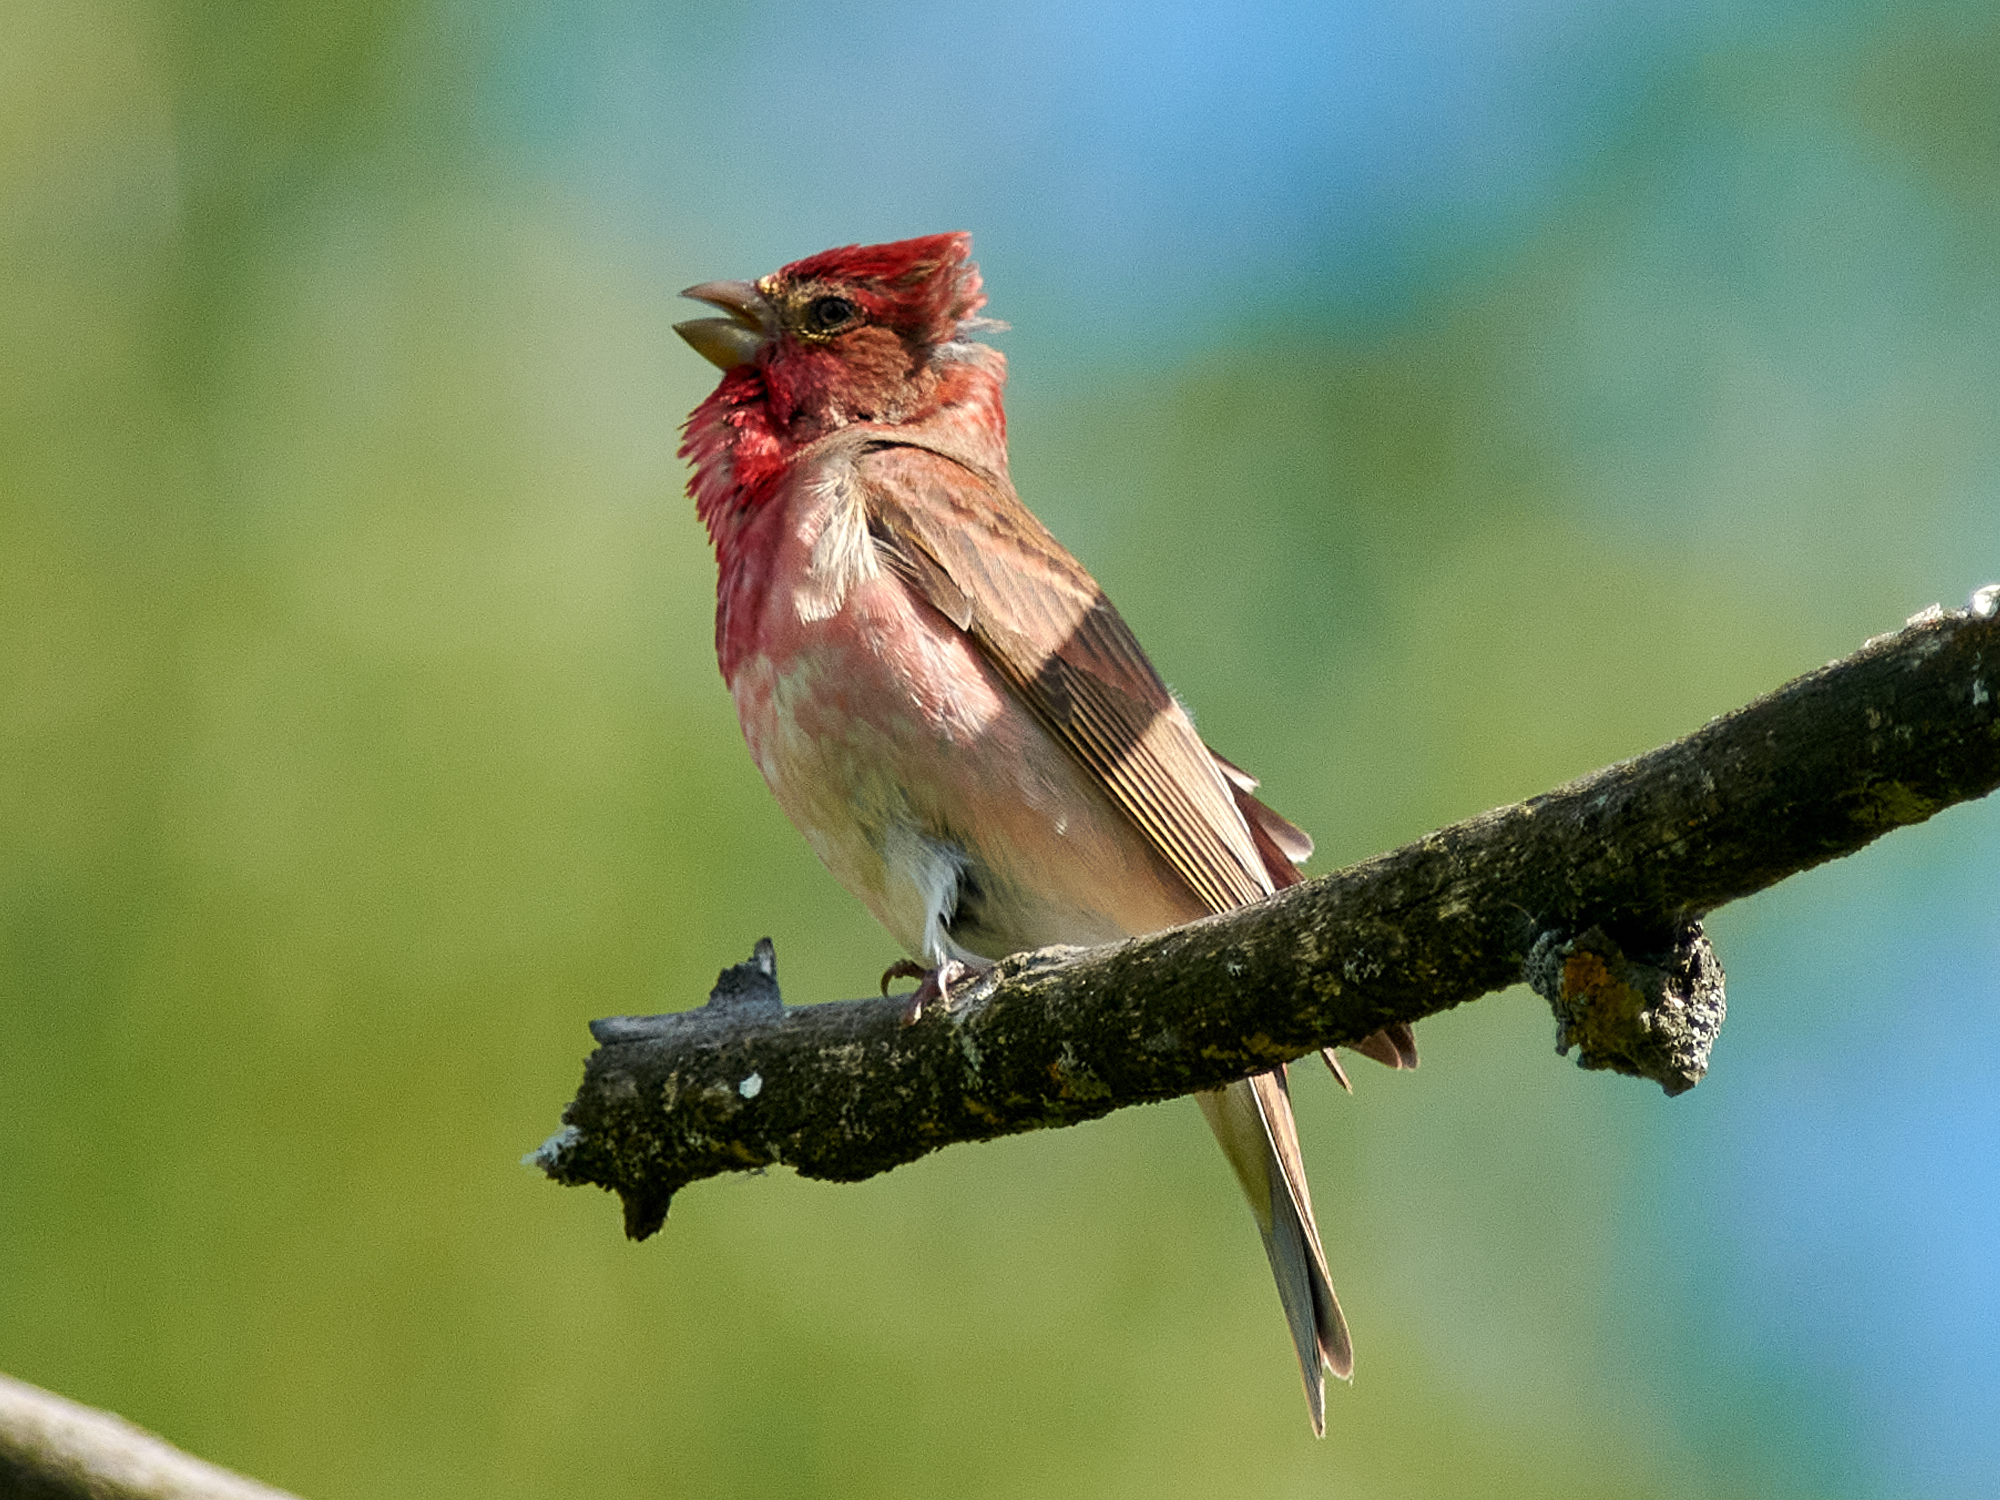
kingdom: Animalia
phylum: Chordata
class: Aves
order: Passeriformes
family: Fringillidae
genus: Carpodacus
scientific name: Carpodacus erythrinus
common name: Common rosefinch
